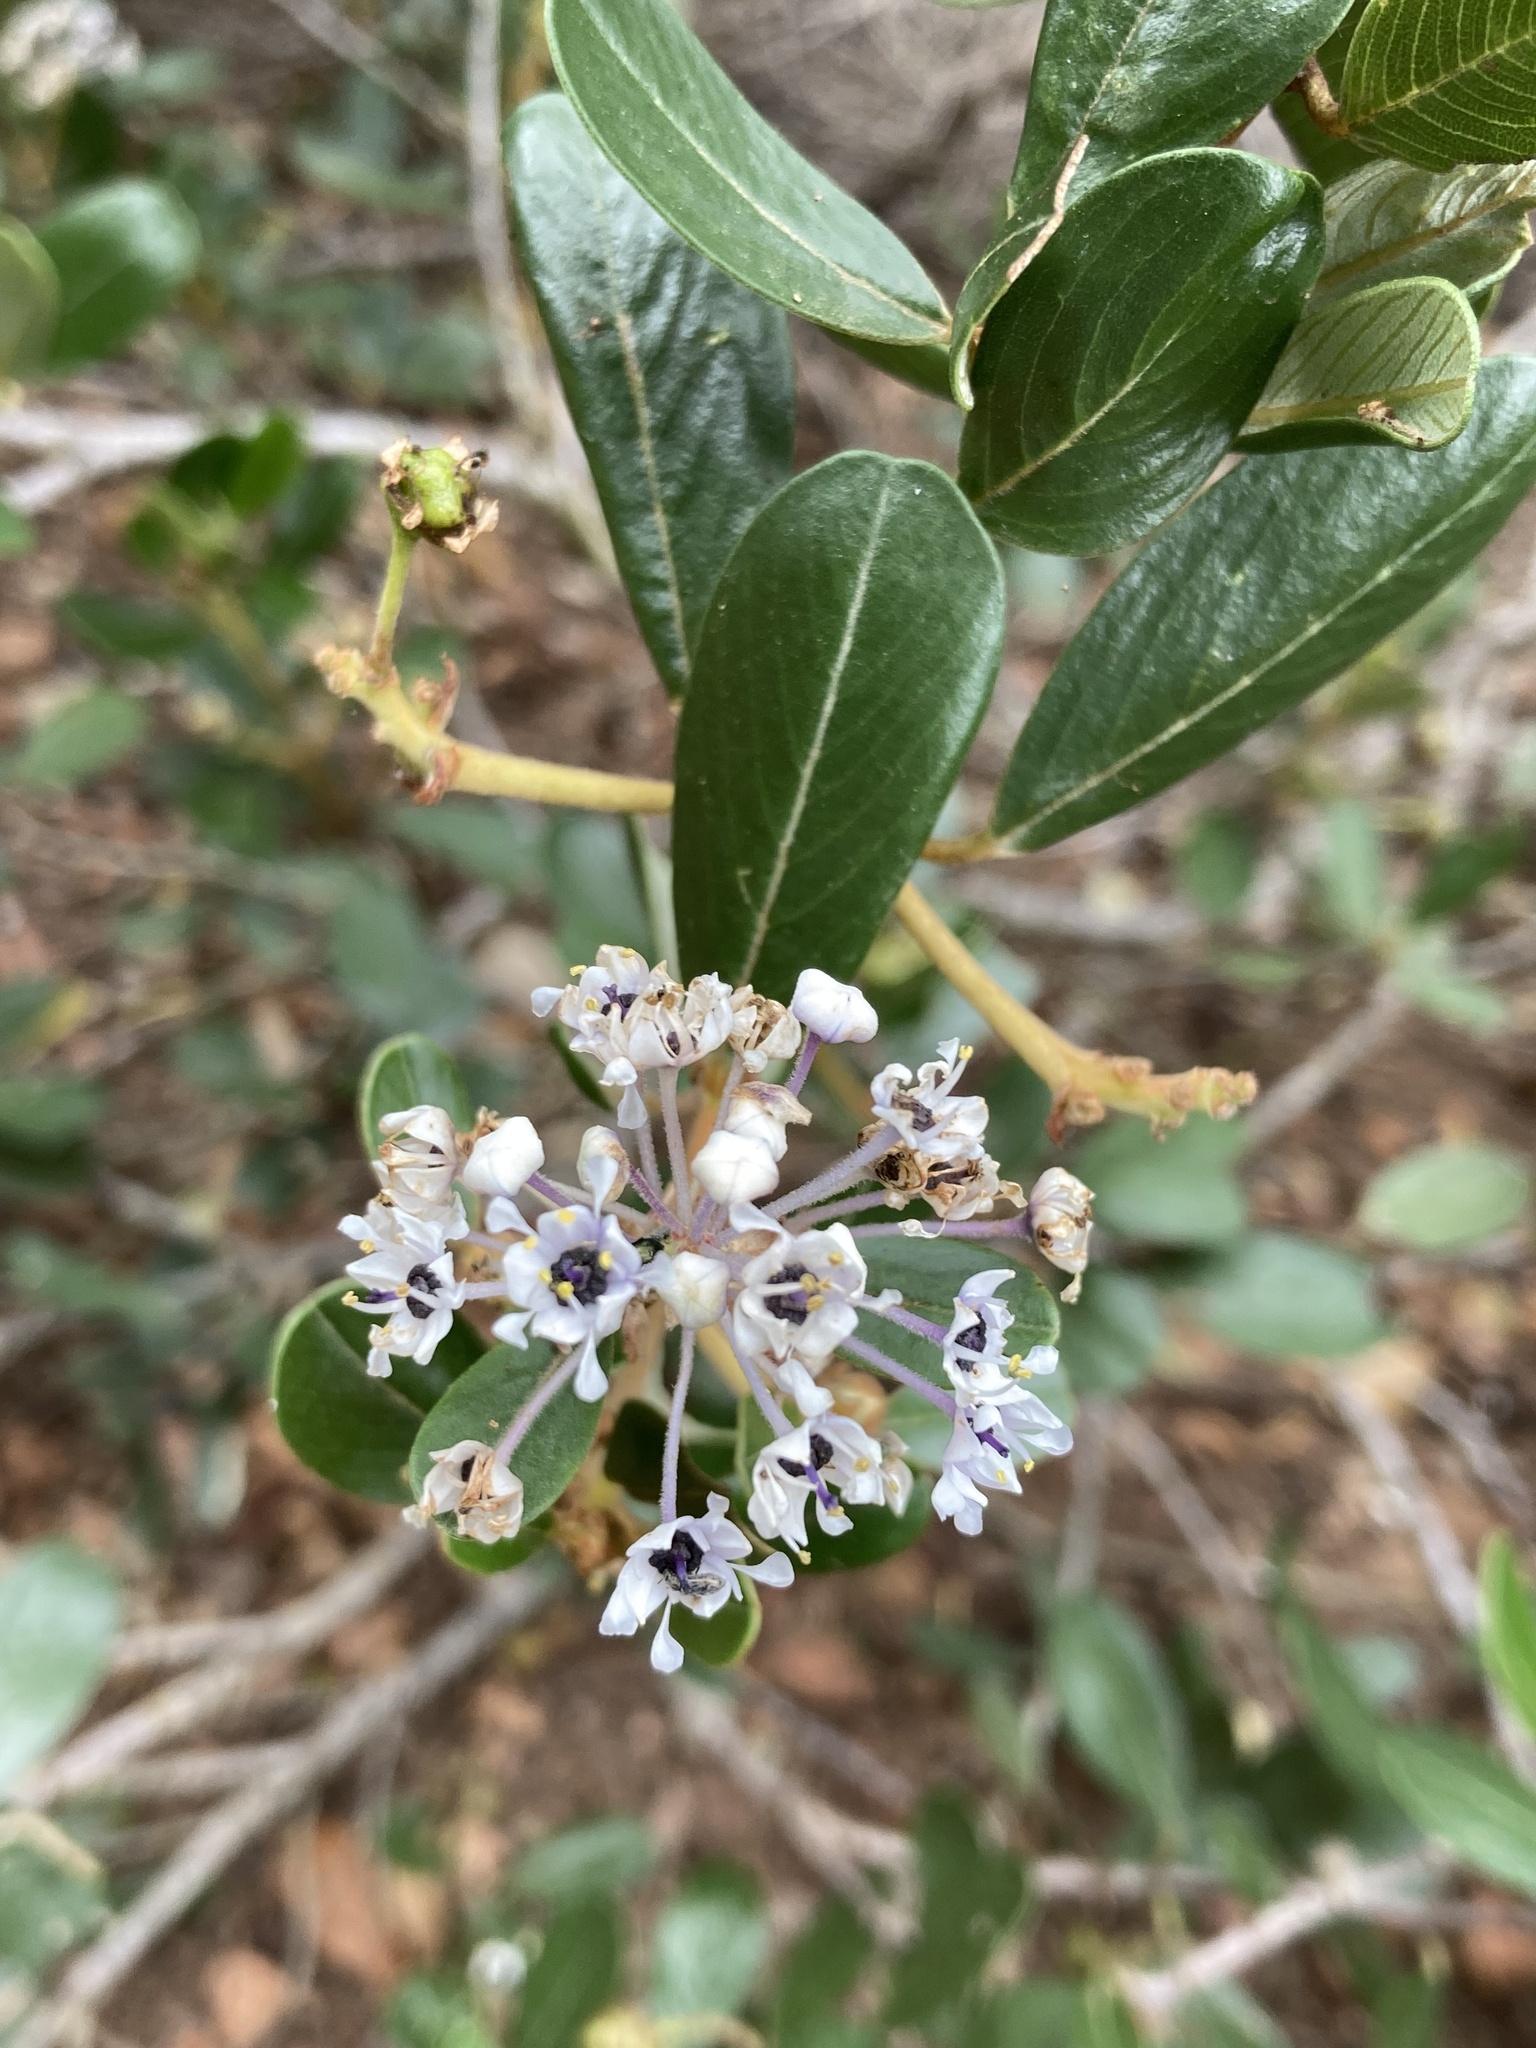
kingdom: Plantae
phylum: Tracheophyta
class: Magnoliopsida
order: Rosales
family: Rhamnaceae
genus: Ceanothus
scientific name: Ceanothus megacarpus
